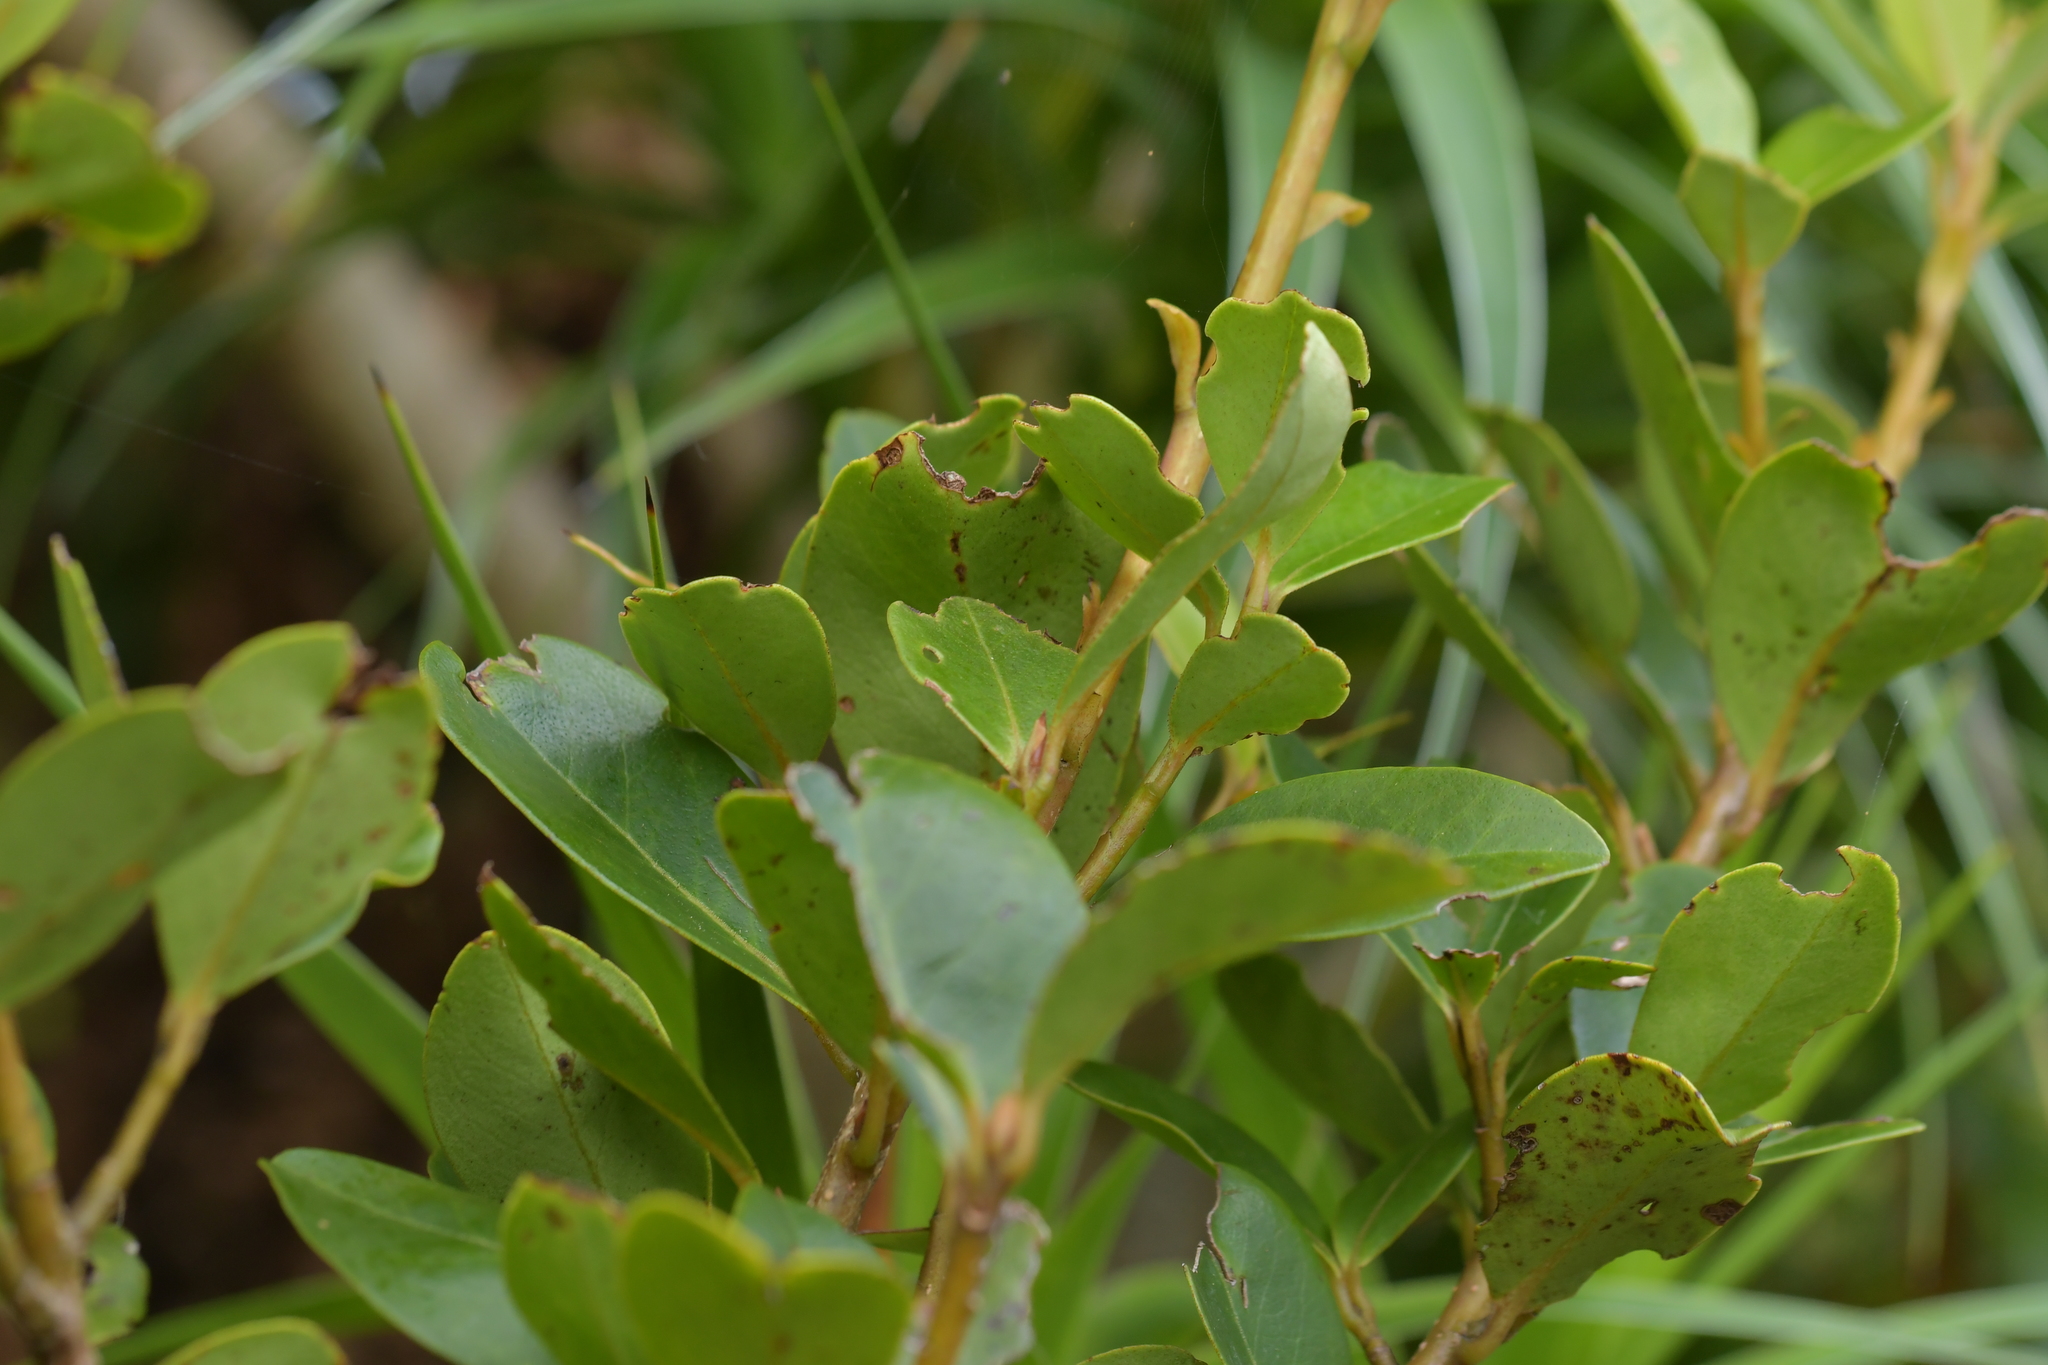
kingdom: Plantae
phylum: Tracheophyta
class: Magnoliopsida
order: Ericales
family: Primulaceae
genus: Myrsine
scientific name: Myrsine chathamica
